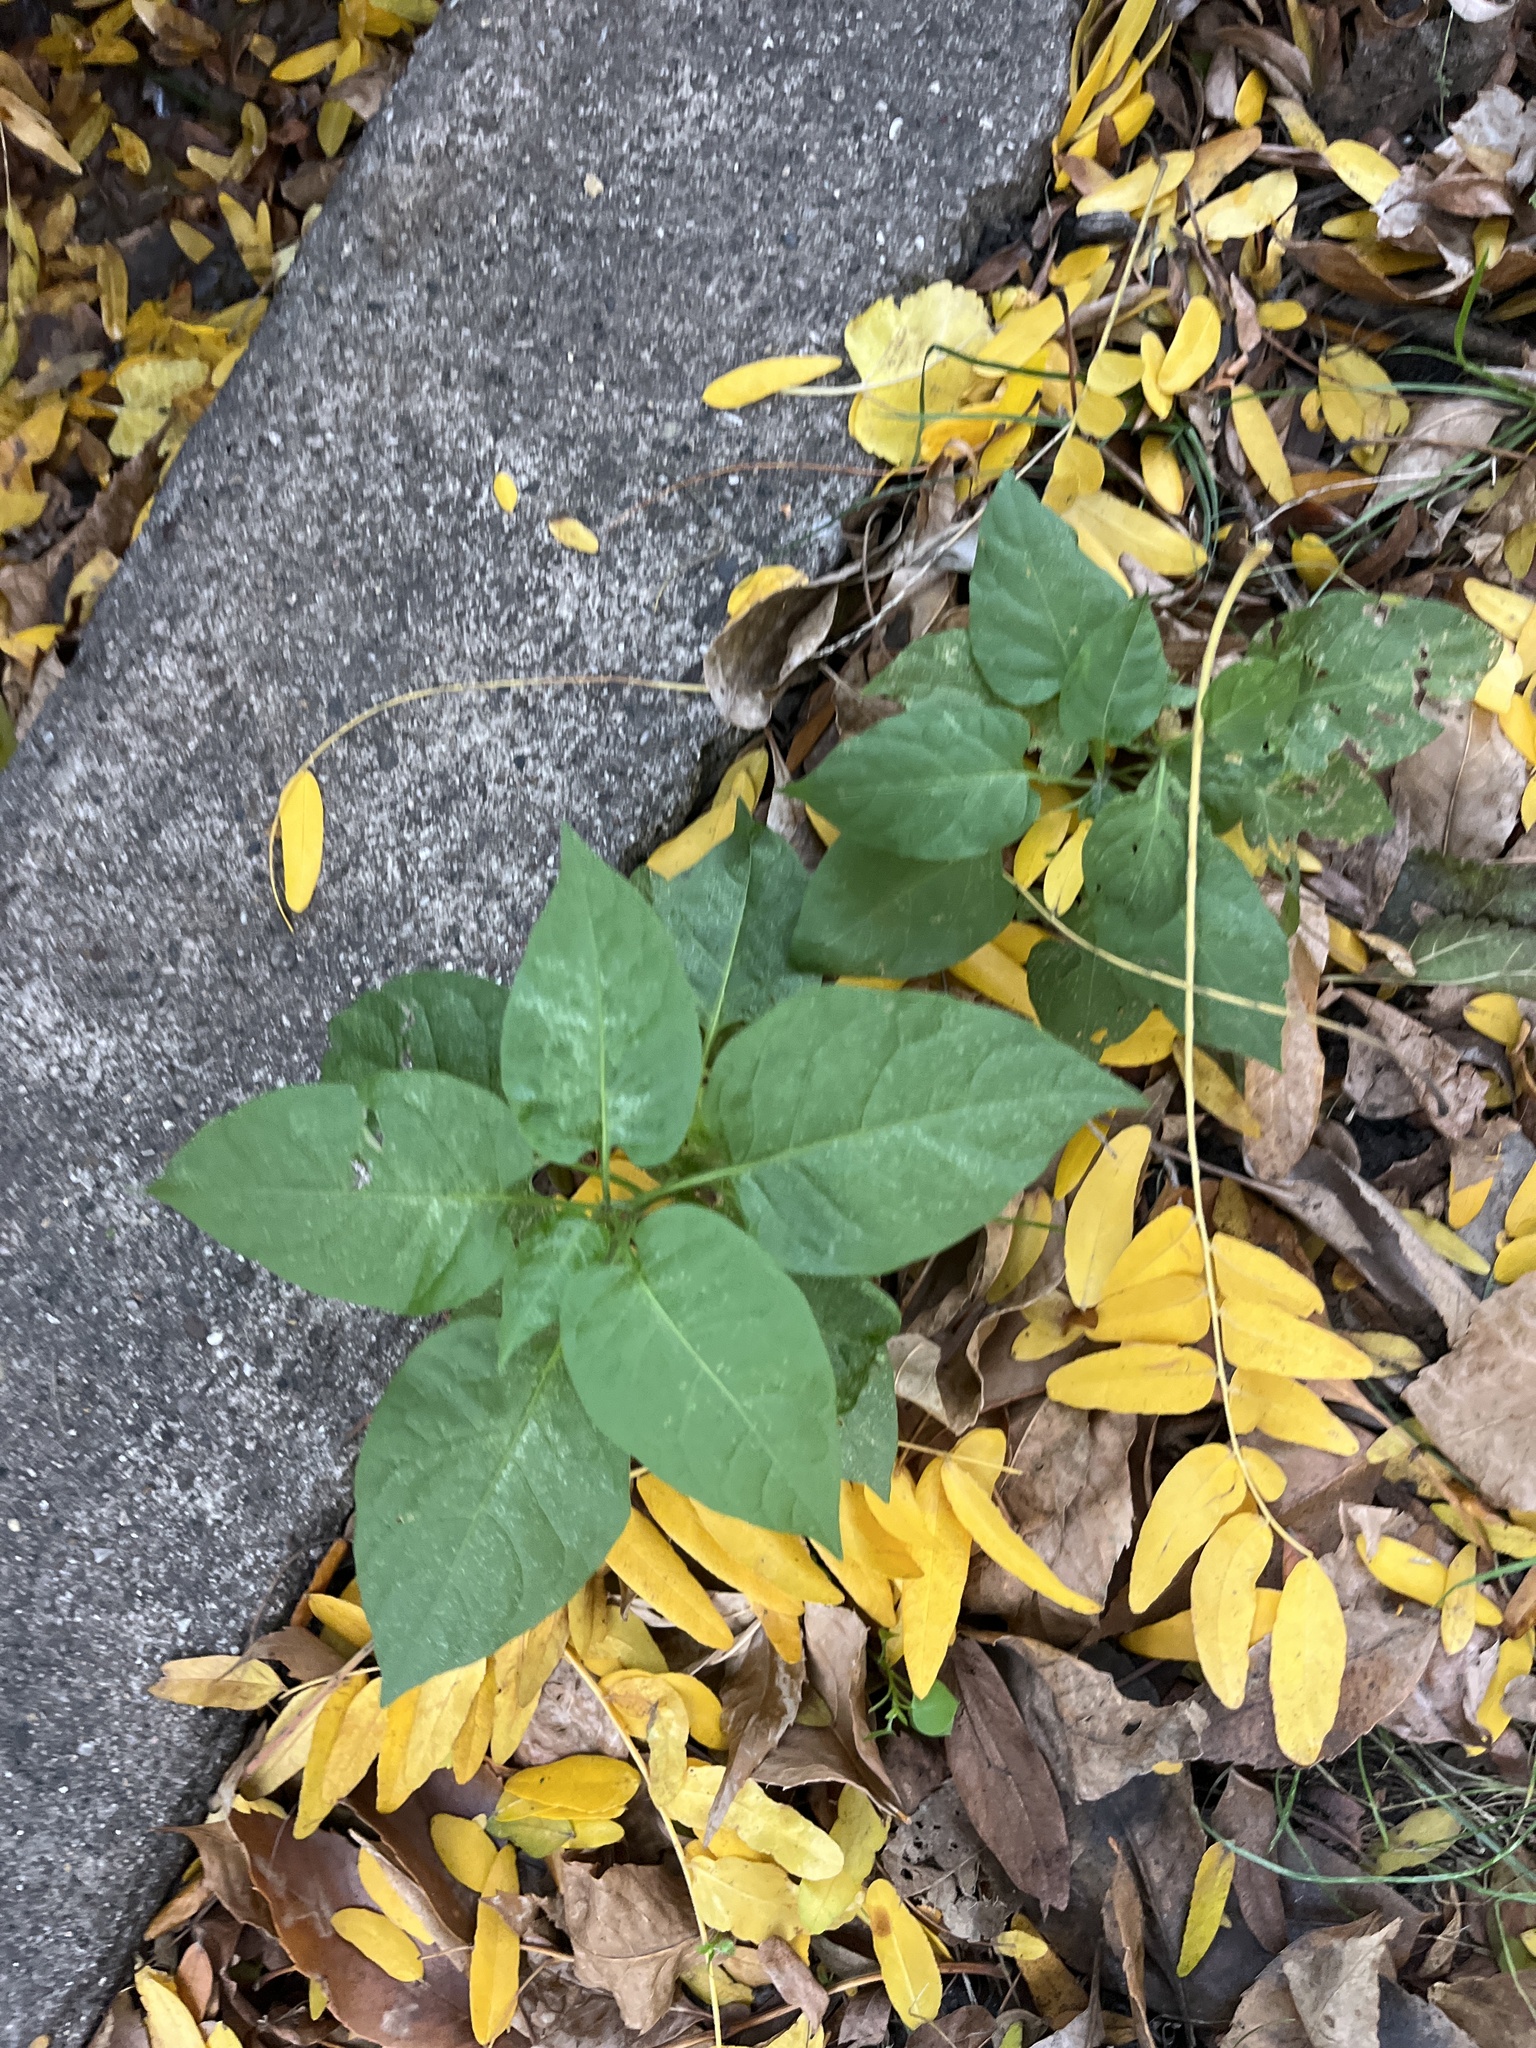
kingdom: Plantae
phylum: Tracheophyta
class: Magnoliopsida
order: Solanales
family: Solanaceae
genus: Solanum
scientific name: Solanum dulcamara
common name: Climbing nightshade
